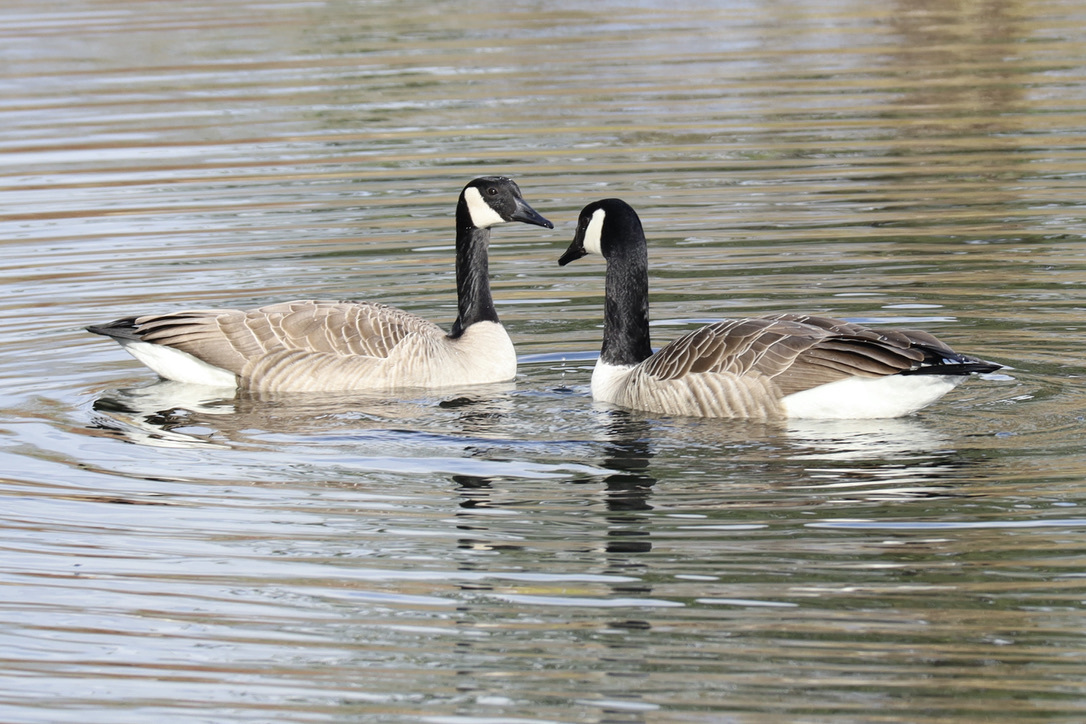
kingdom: Animalia
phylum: Chordata
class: Aves
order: Anseriformes
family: Anatidae
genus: Branta
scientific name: Branta canadensis
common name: Canada goose
